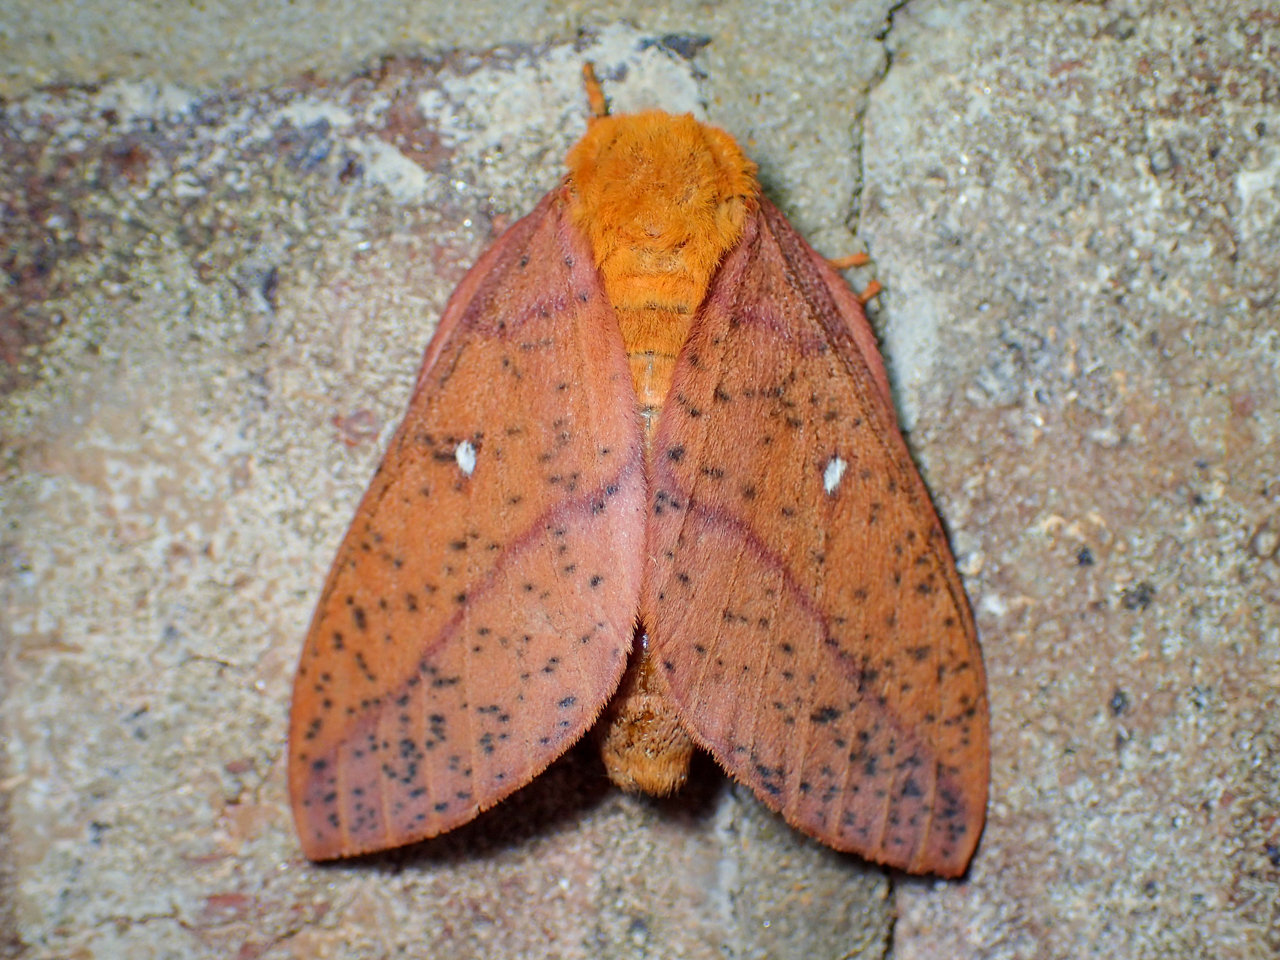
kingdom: Animalia
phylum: Arthropoda
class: Insecta
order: Lepidoptera
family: Saturniidae
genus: Anisota
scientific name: Anisota stigma
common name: Spiny oakworm moth
